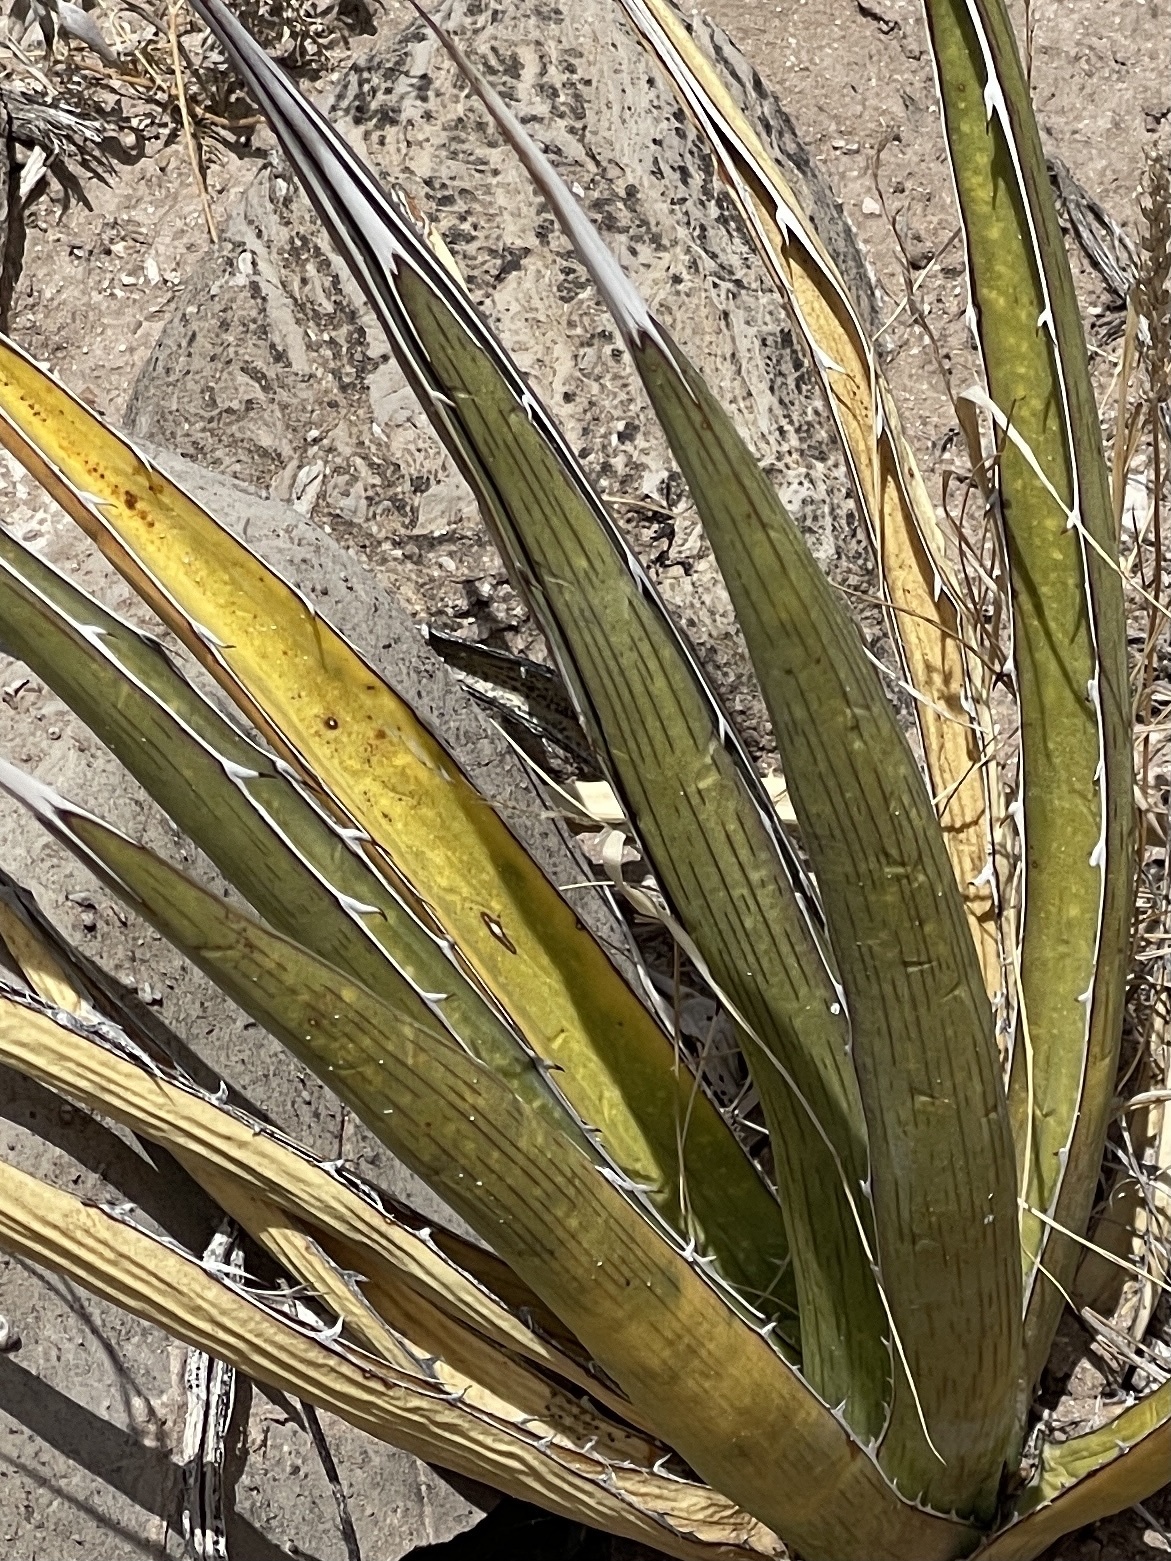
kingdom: Plantae
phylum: Tracheophyta
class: Liliopsida
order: Asparagales
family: Asparagaceae
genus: Agave
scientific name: Agave lechuguilla
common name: Lecheguilla agave
